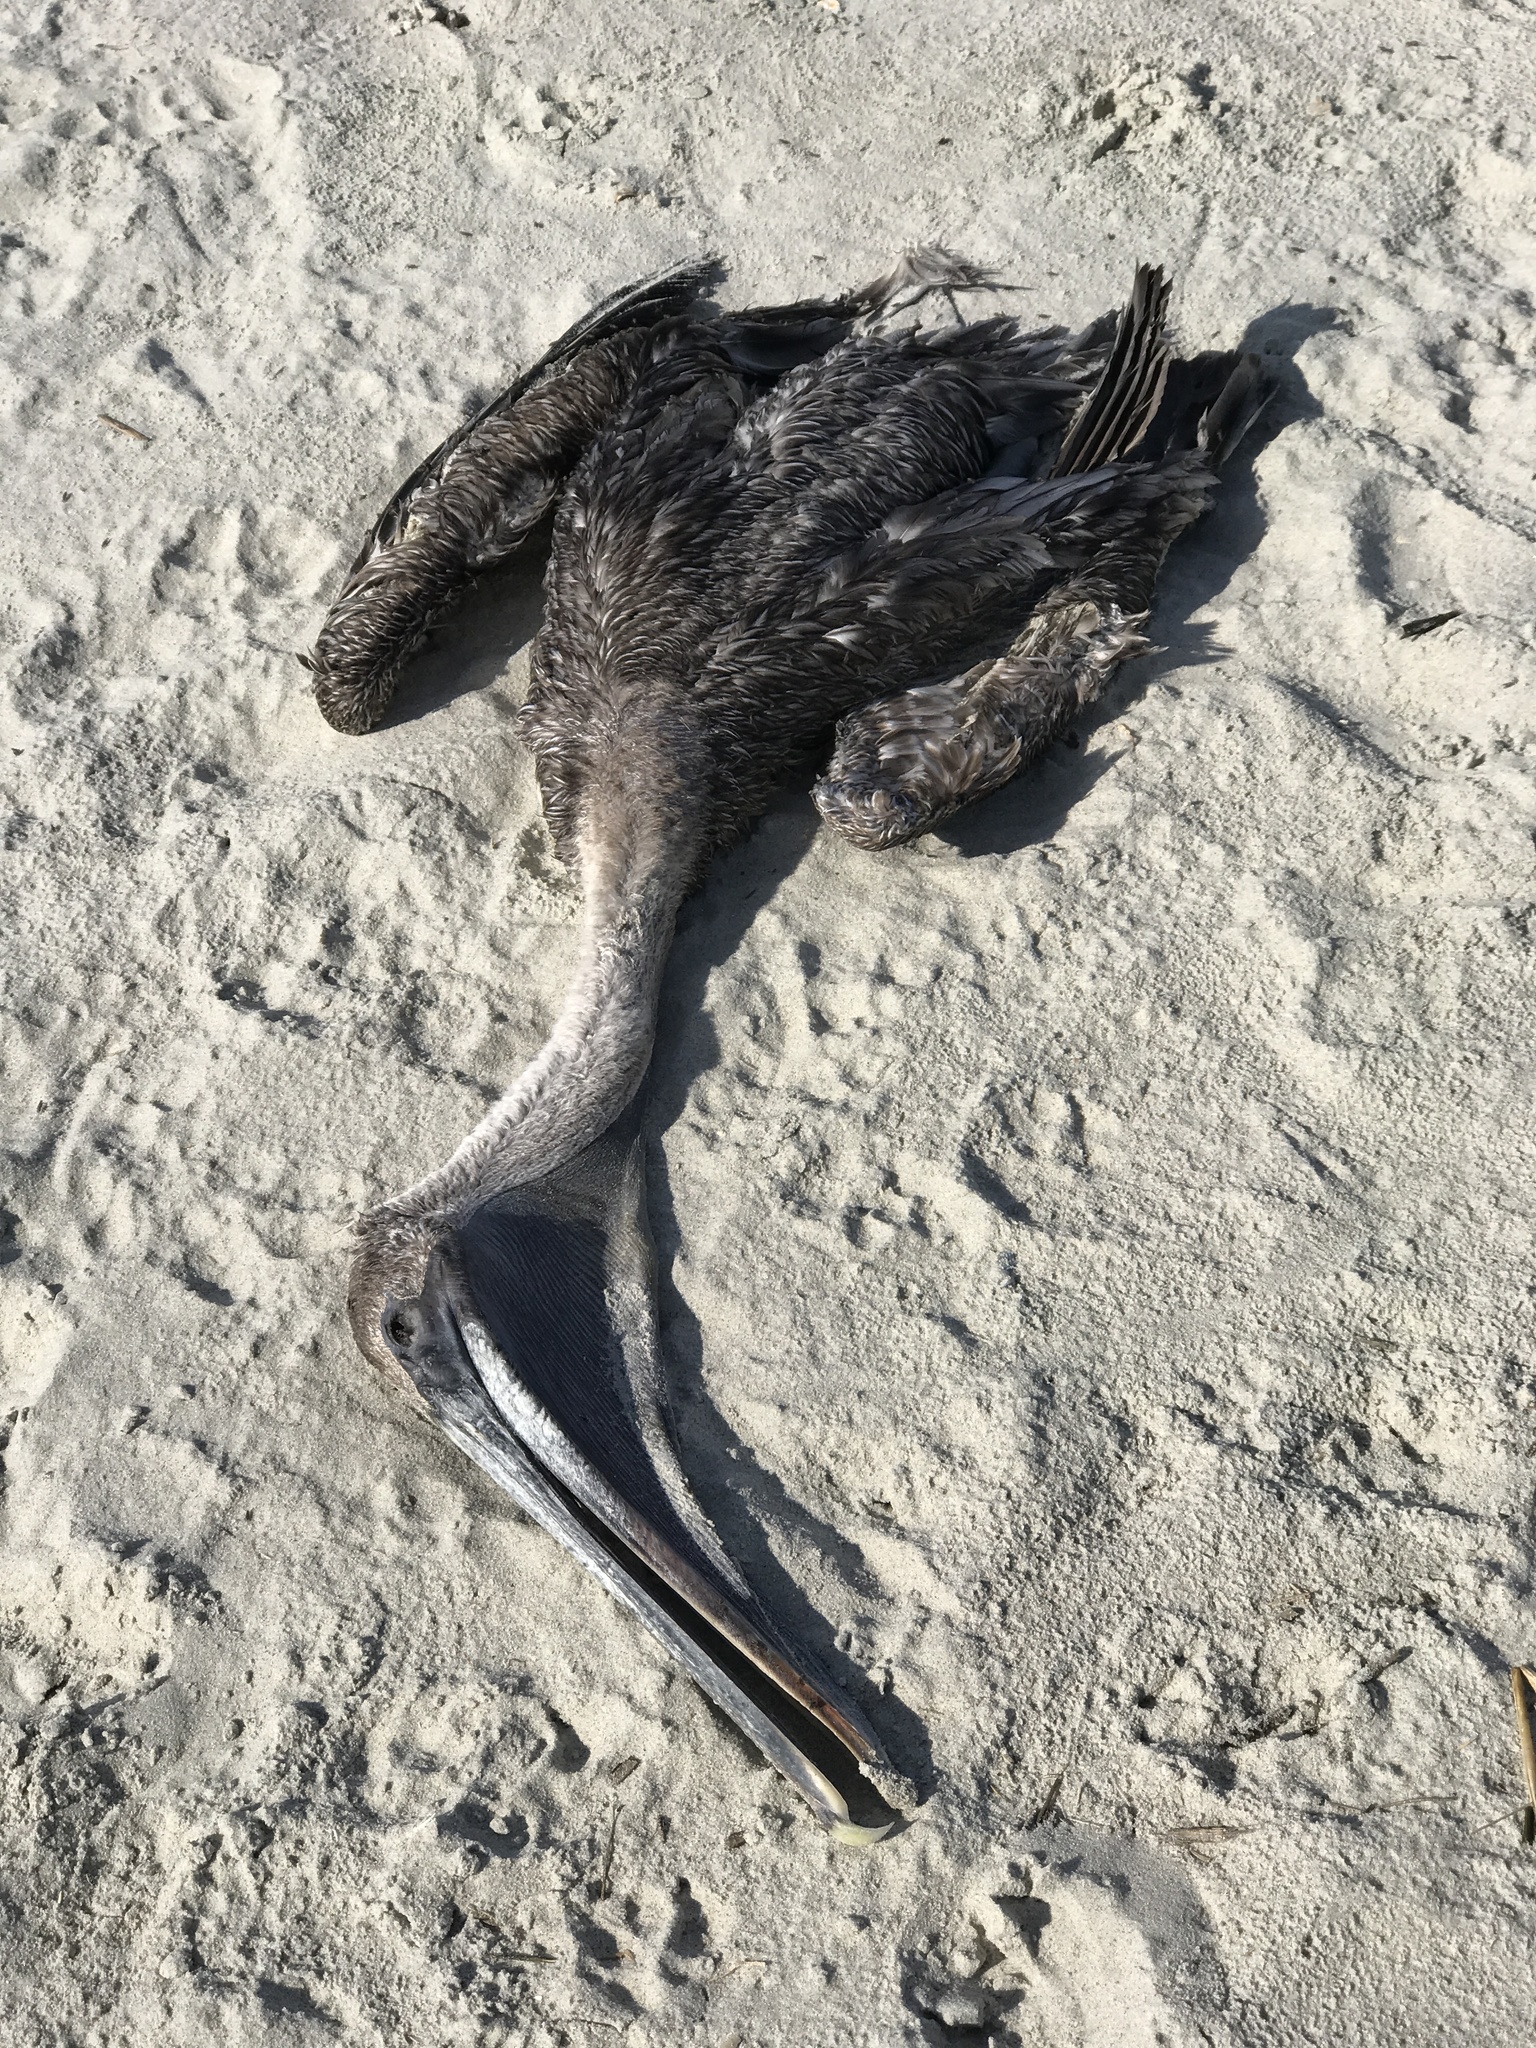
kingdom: Animalia
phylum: Chordata
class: Aves
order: Pelecaniformes
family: Pelecanidae
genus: Pelecanus
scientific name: Pelecanus occidentalis
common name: Brown pelican
